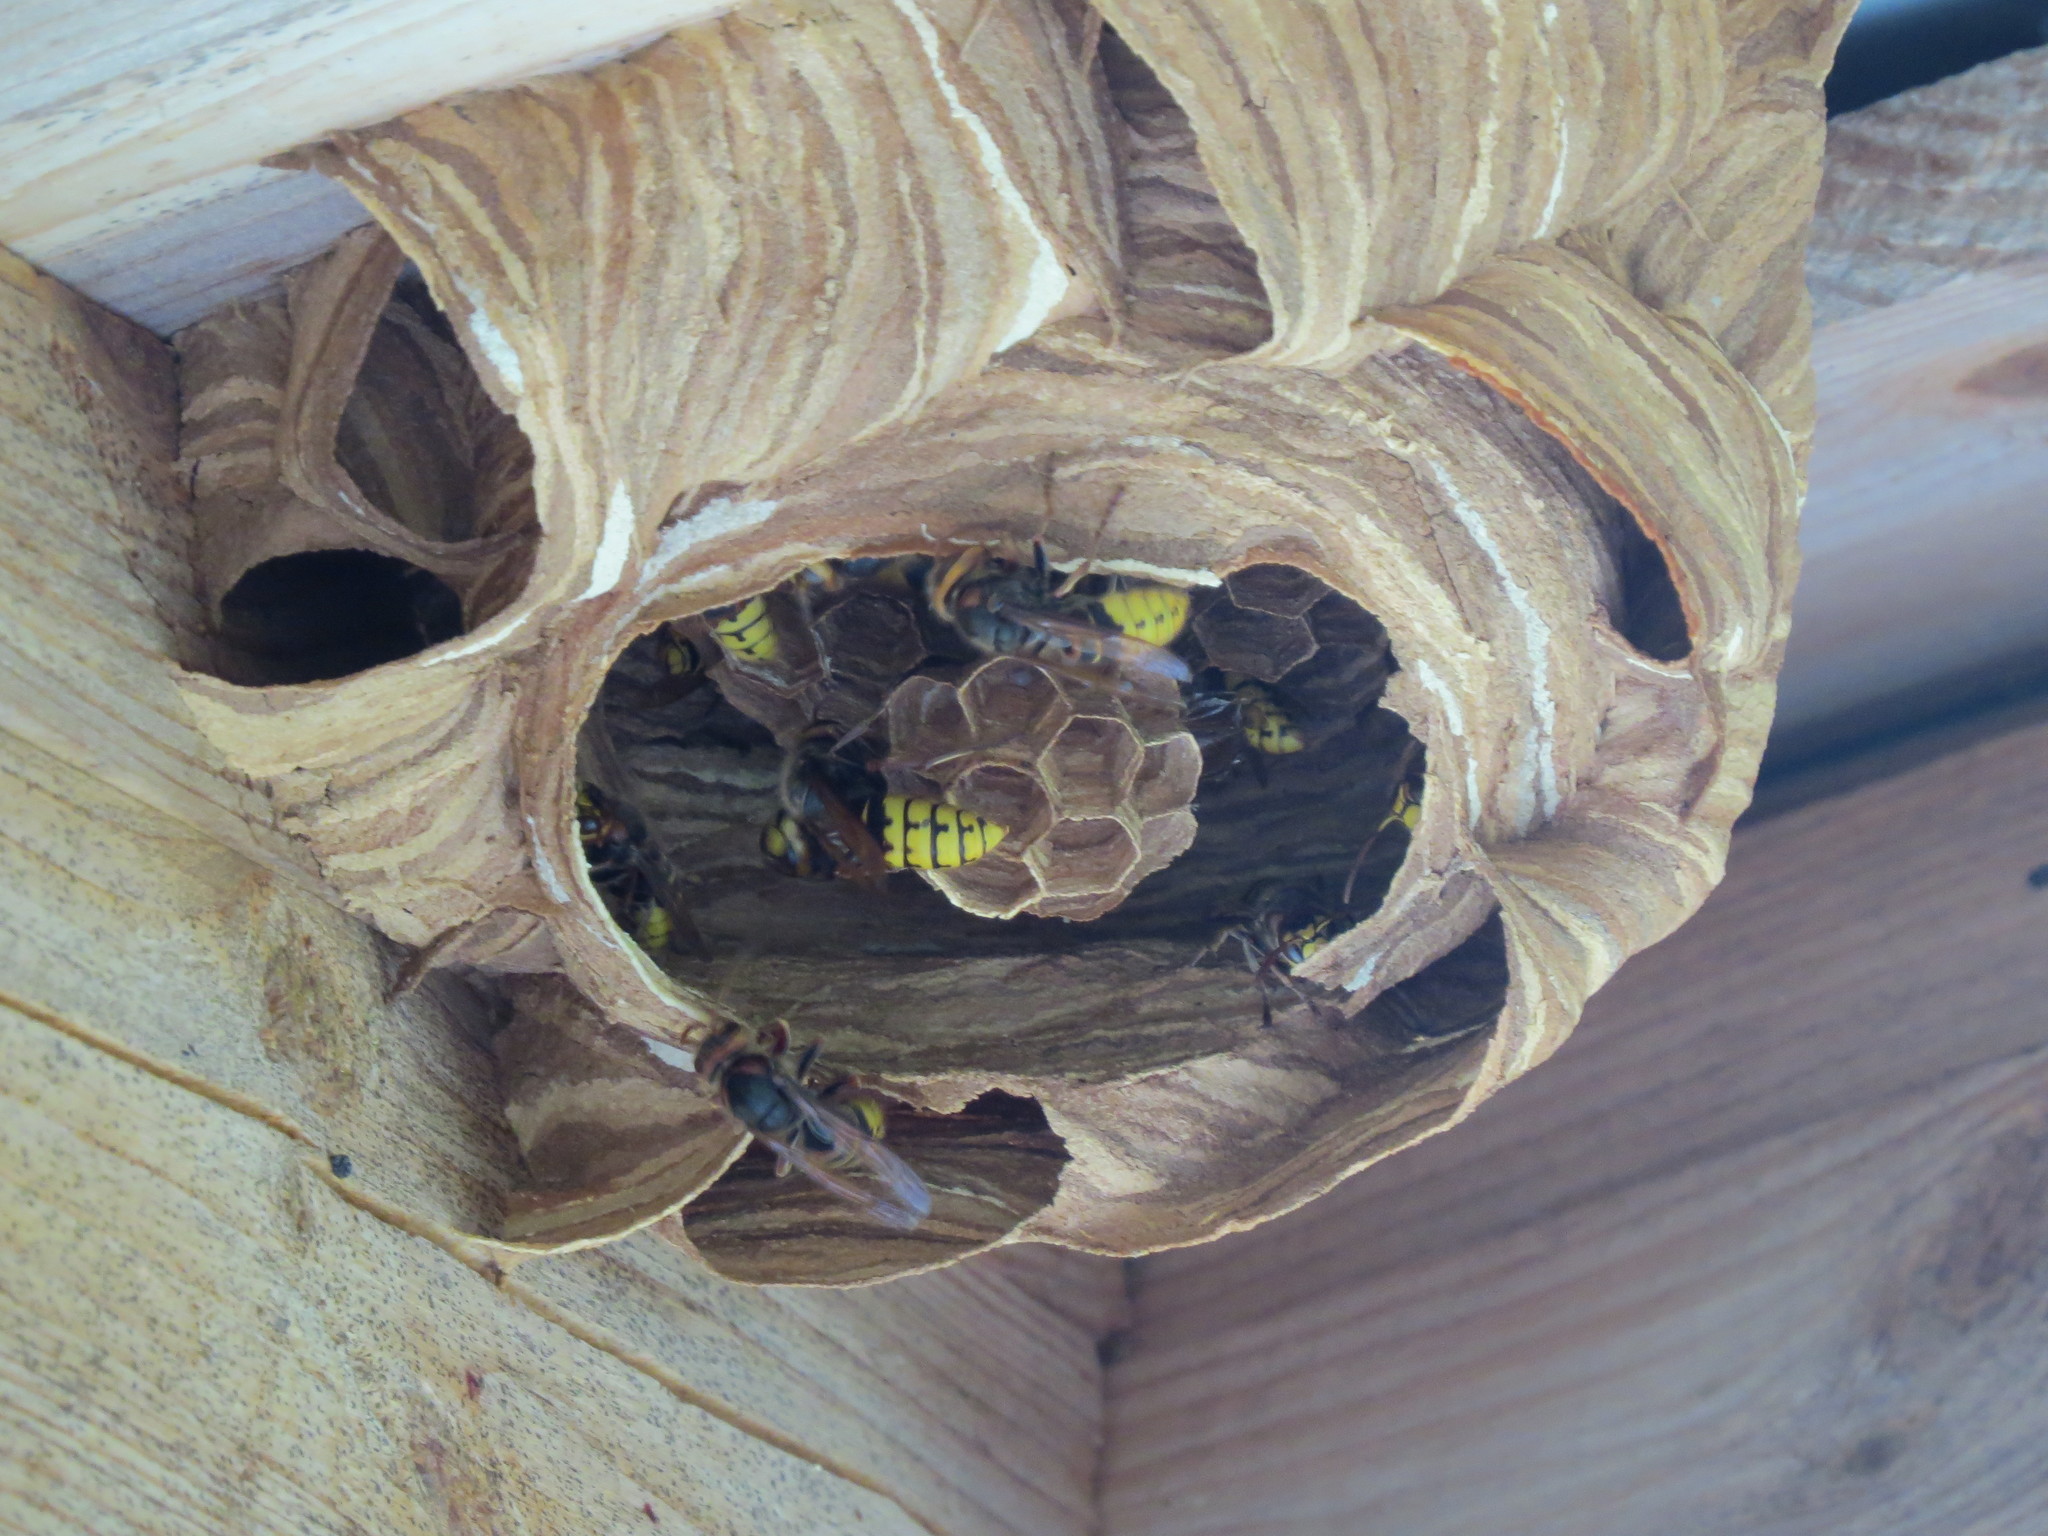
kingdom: Animalia
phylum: Arthropoda
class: Insecta
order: Hymenoptera
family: Vespidae
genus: Vespa
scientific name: Vespa crabro
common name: Hornet
